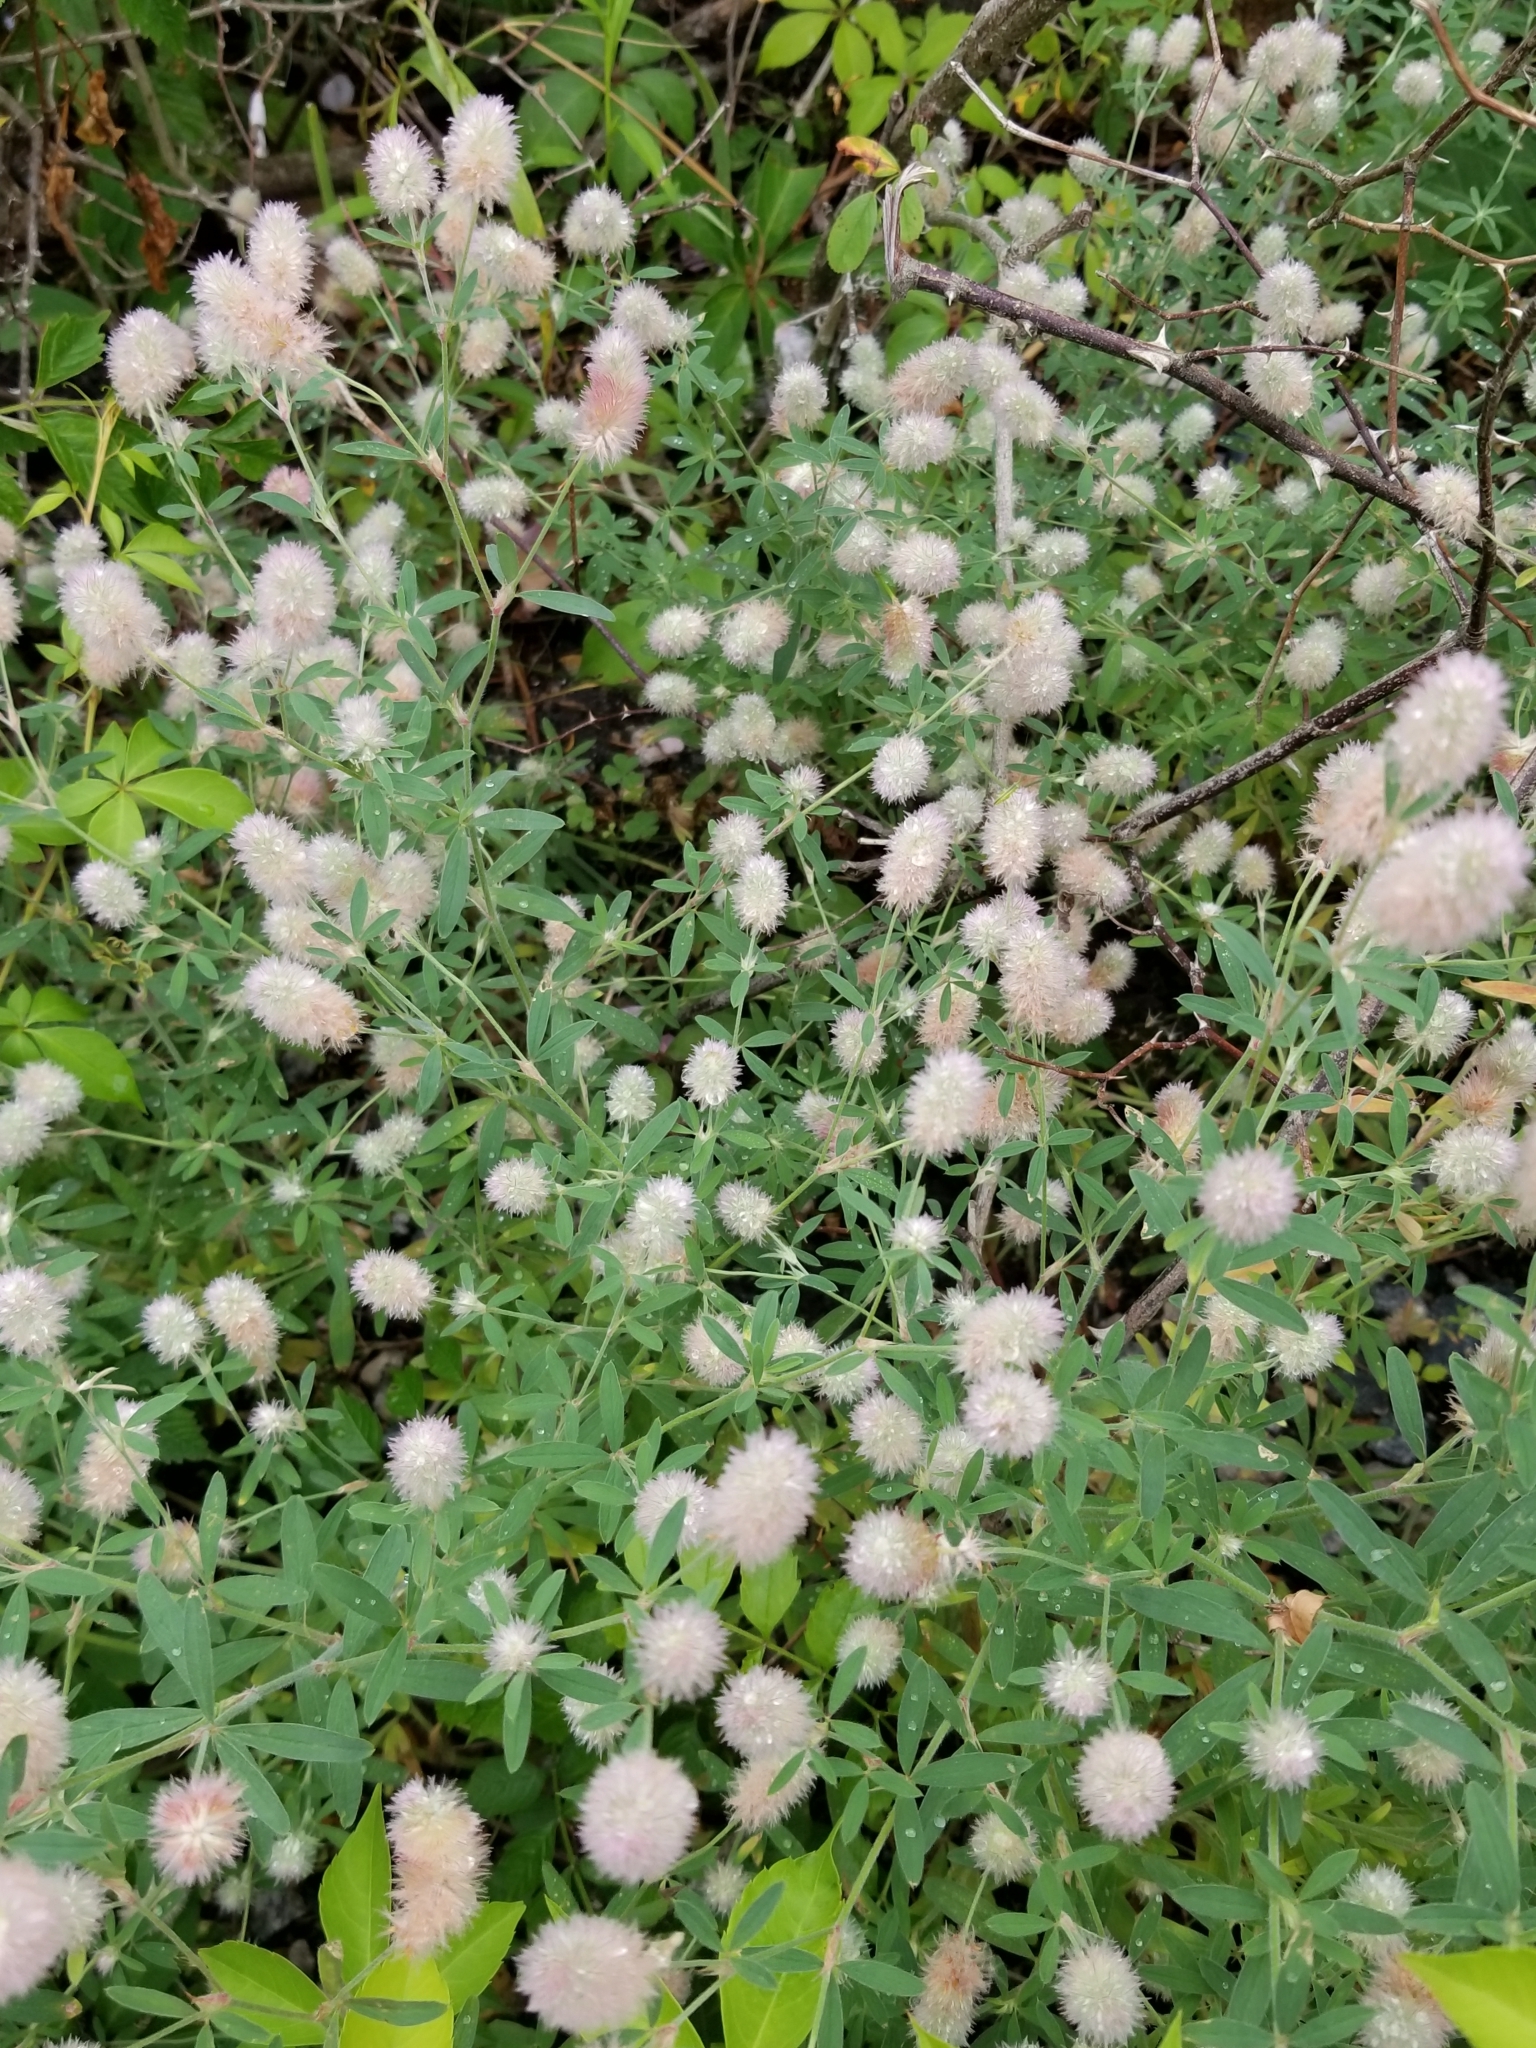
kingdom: Plantae
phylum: Tracheophyta
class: Magnoliopsida
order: Fabales
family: Fabaceae
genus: Trifolium
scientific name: Trifolium arvense
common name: Hare's-foot clover
